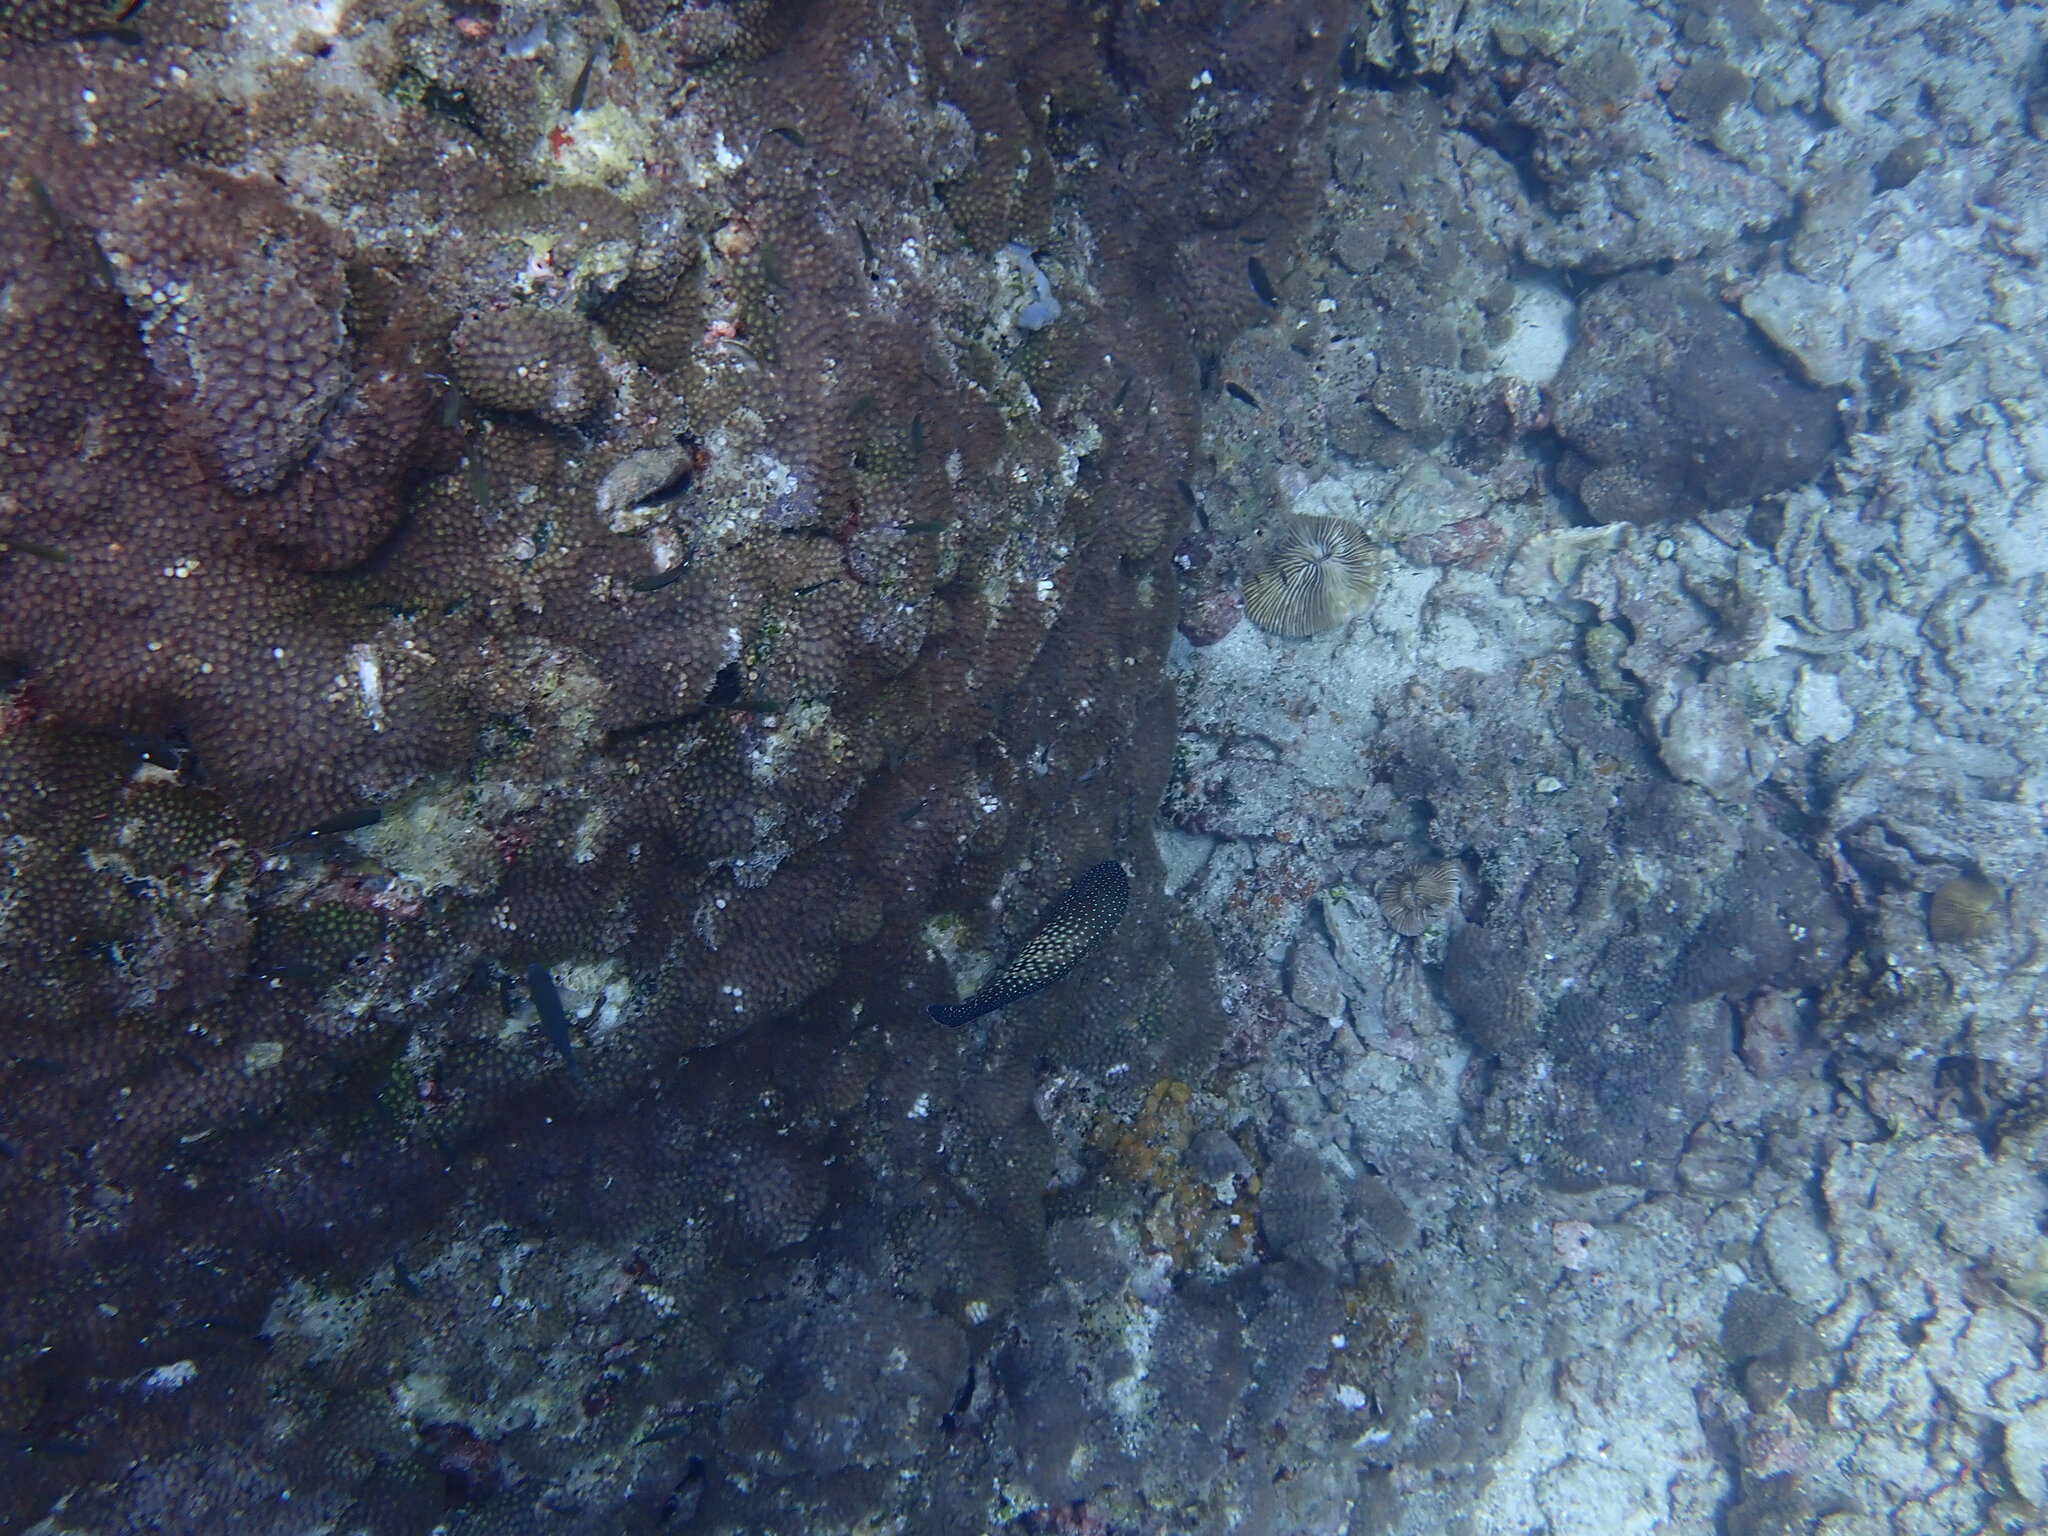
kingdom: Animalia
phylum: Chordata
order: Perciformes
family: Serranidae
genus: Cephalopholis
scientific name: Cephalopholis cyanostigma
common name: Bluespotted hind
